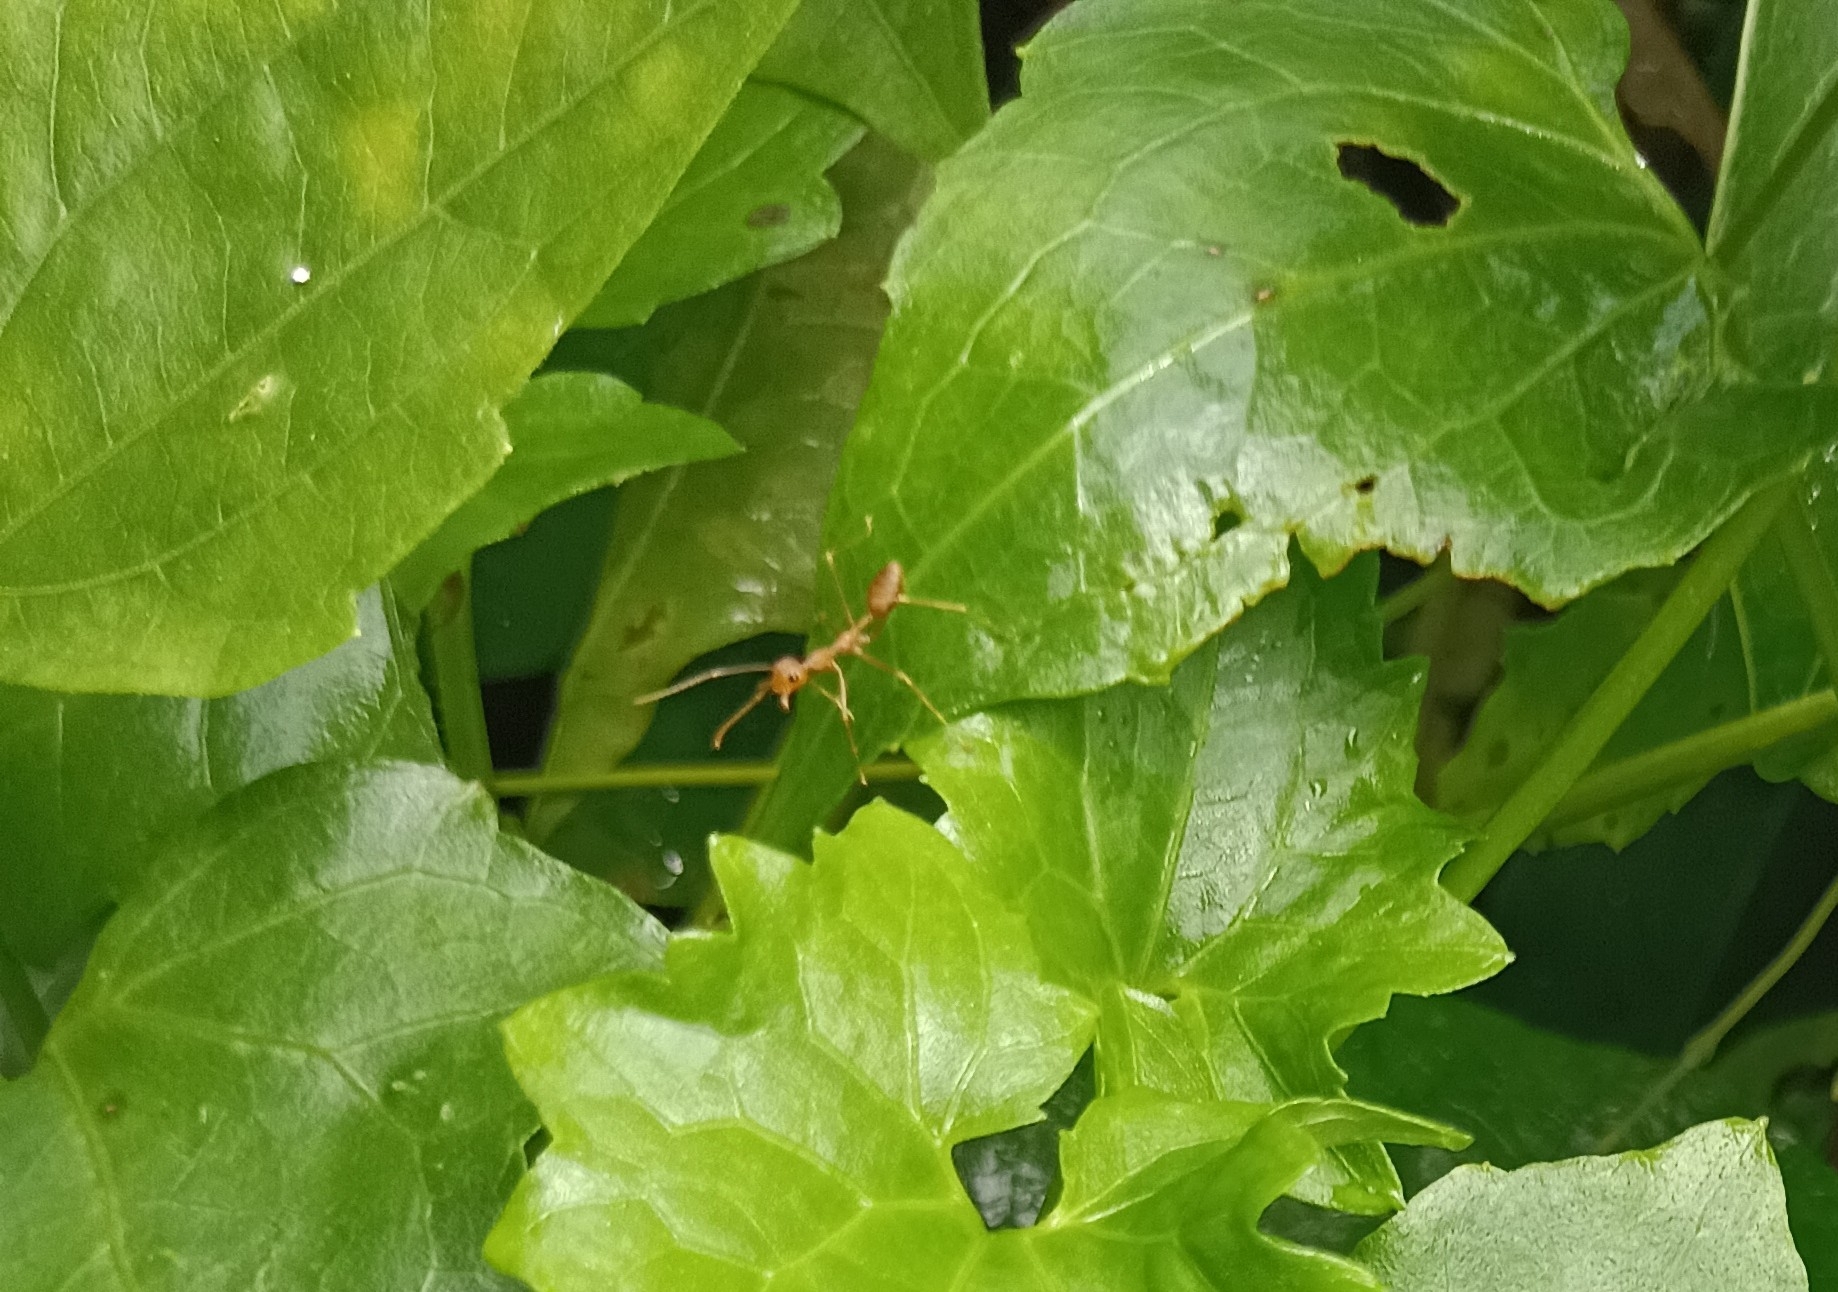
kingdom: Animalia
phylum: Arthropoda
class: Insecta
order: Hymenoptera
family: Formicidae
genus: Oecophylla
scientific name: Oecophylla smaragdina
